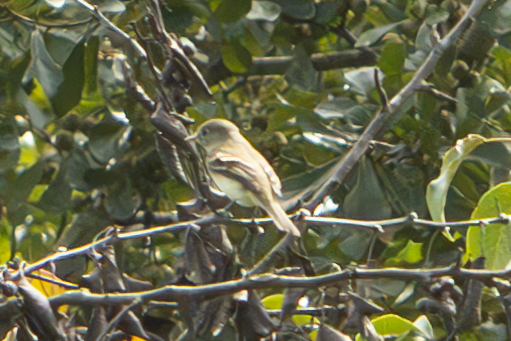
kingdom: Animalia
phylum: Chordata
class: Aves
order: Passeriformes
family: Tyrannidae
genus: Empidonax
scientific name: Empidonax minimus
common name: Least flycatcher
